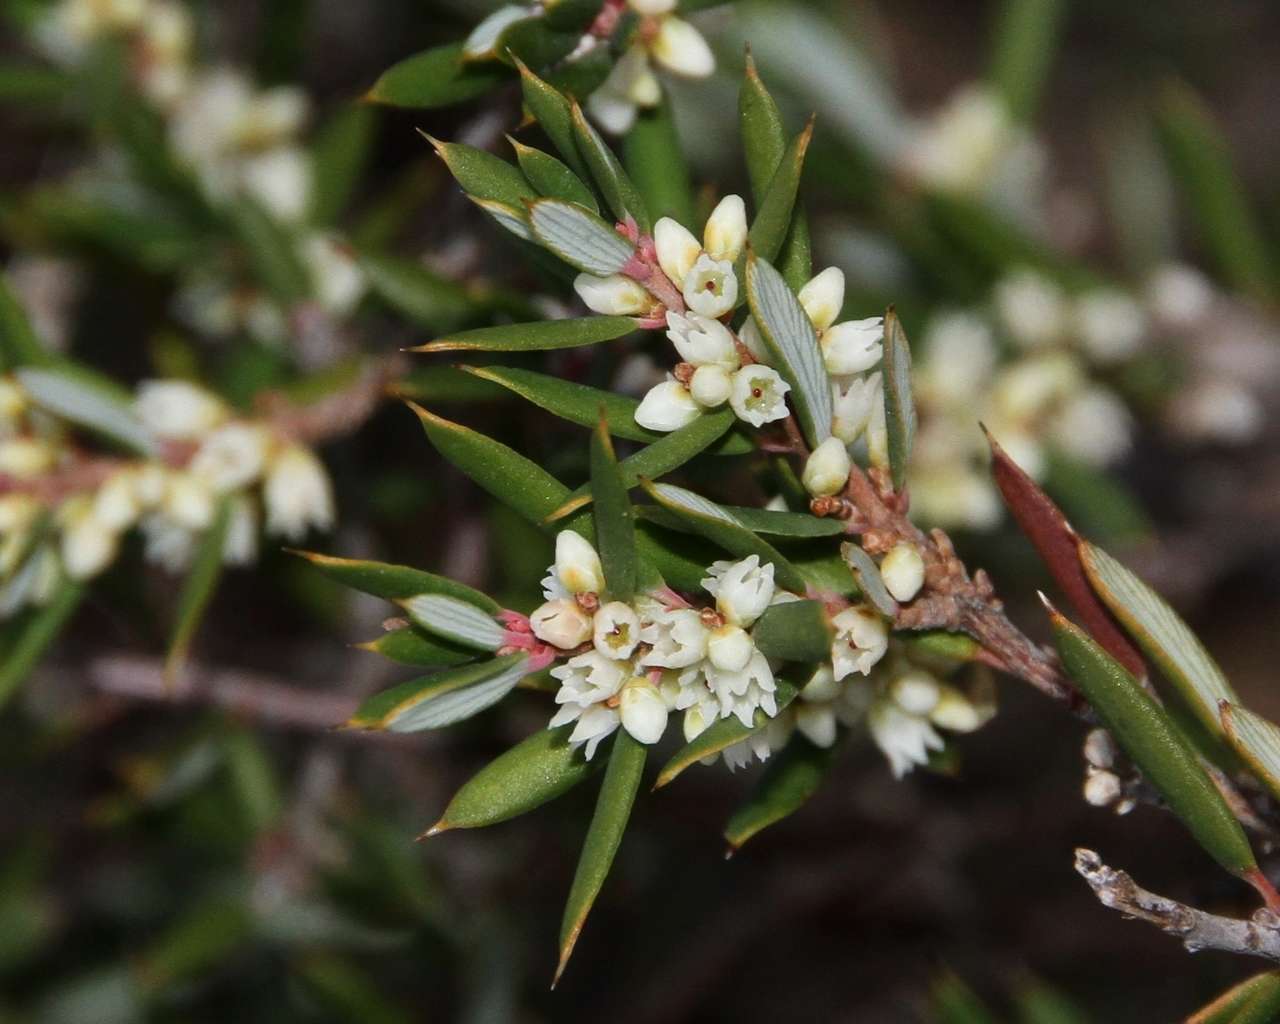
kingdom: Plantae
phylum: Tracheophyta
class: Magnoliopsida
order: Ericales
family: Ericaceae
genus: Monotoca
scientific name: Monotoca scoparia
